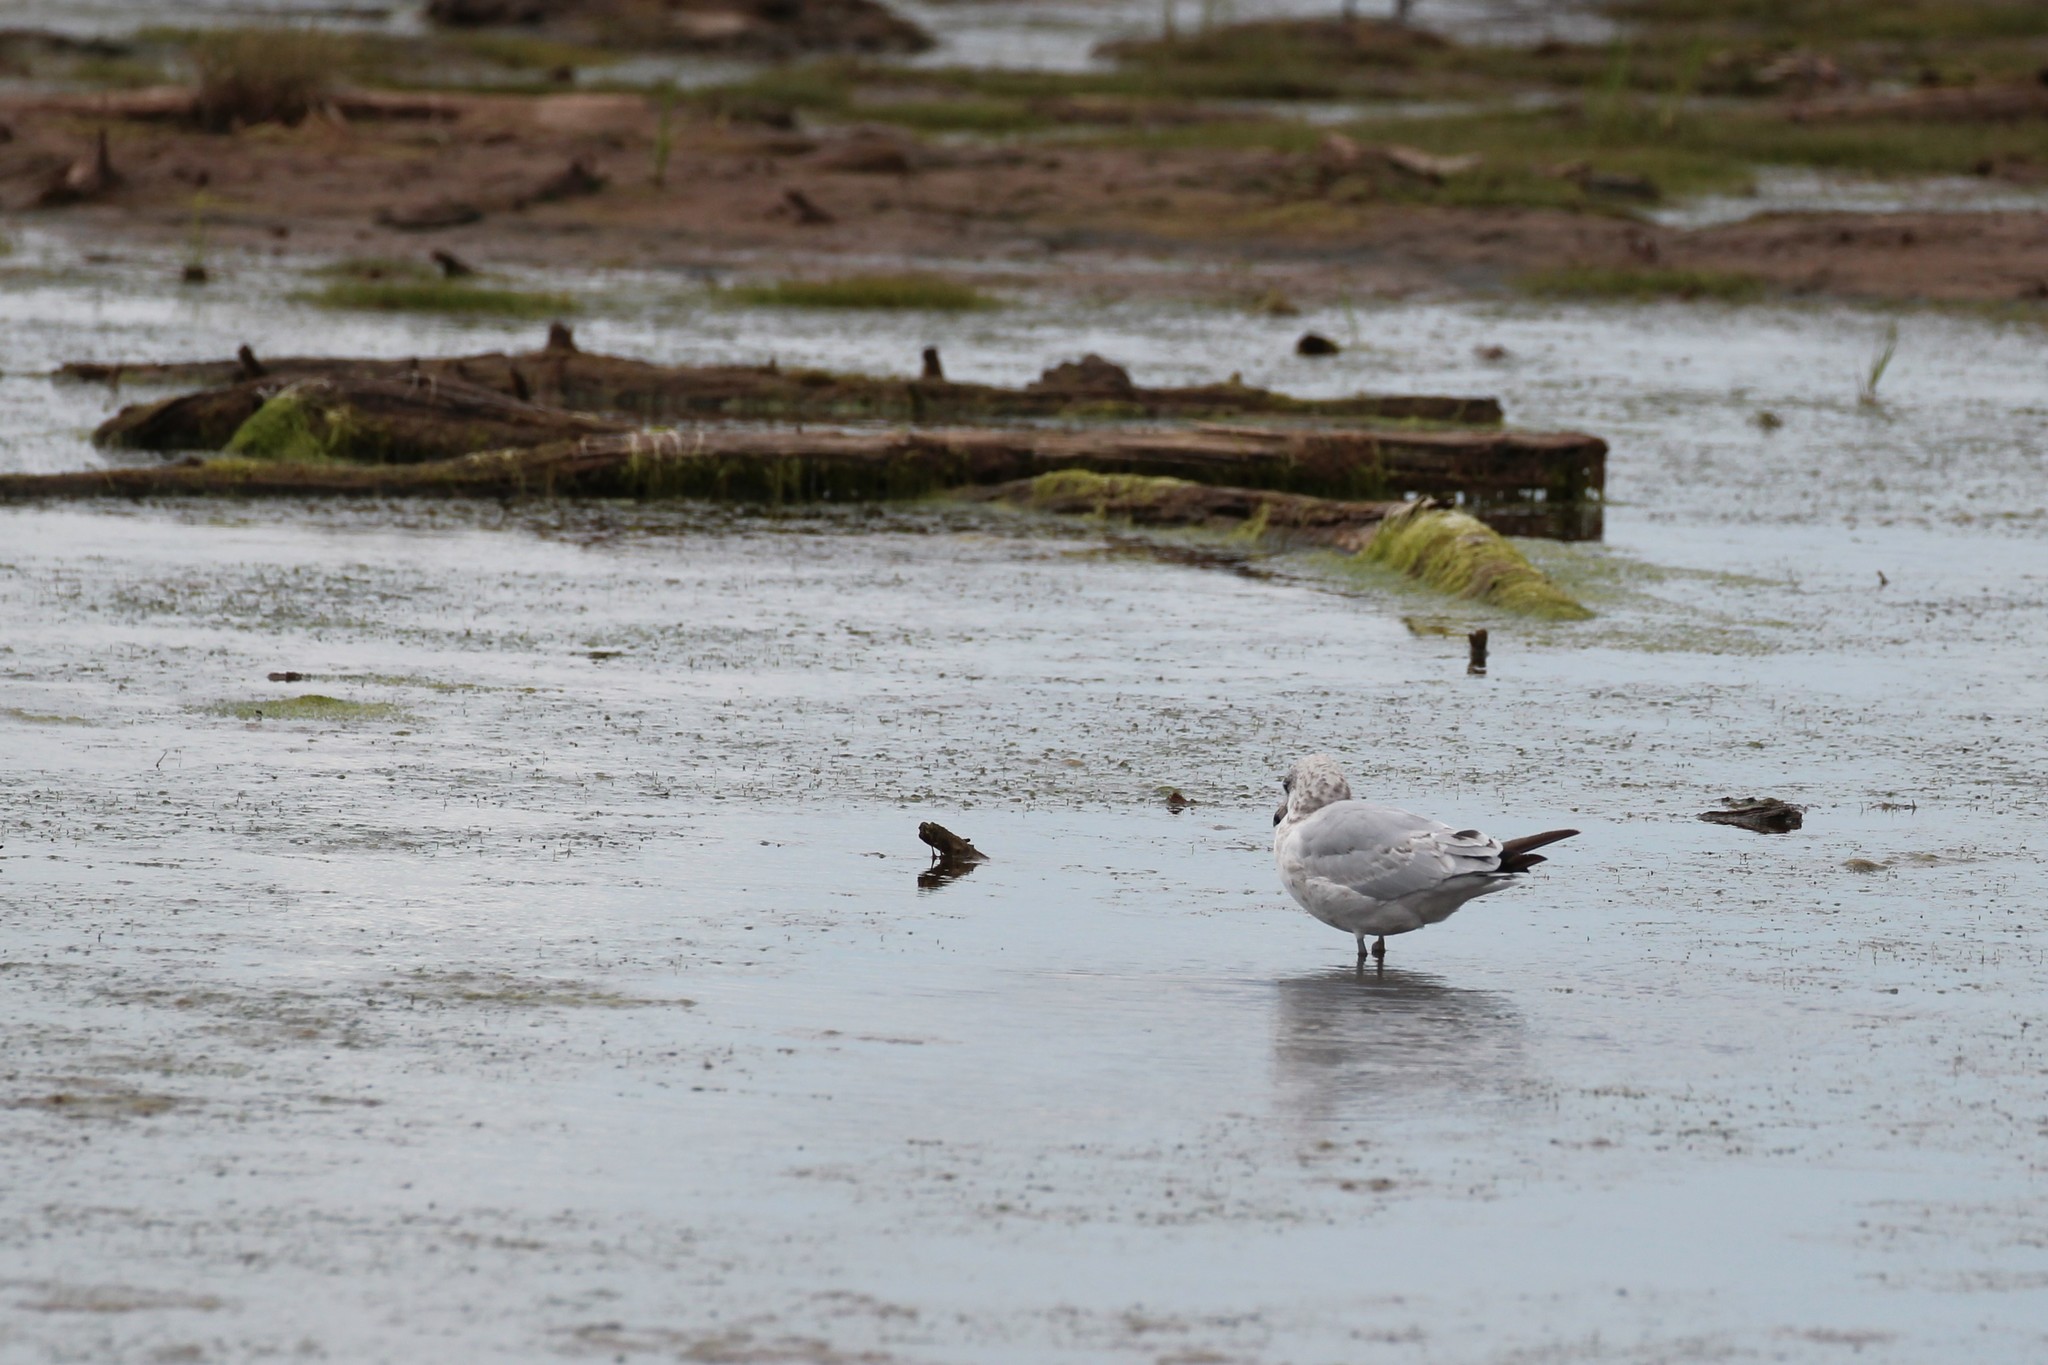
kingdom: Animalia
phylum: Chordata
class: Aves
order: Charadriiformes
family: Laridae
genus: Larus
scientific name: Larus delawarensis
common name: Ring-billed gull
